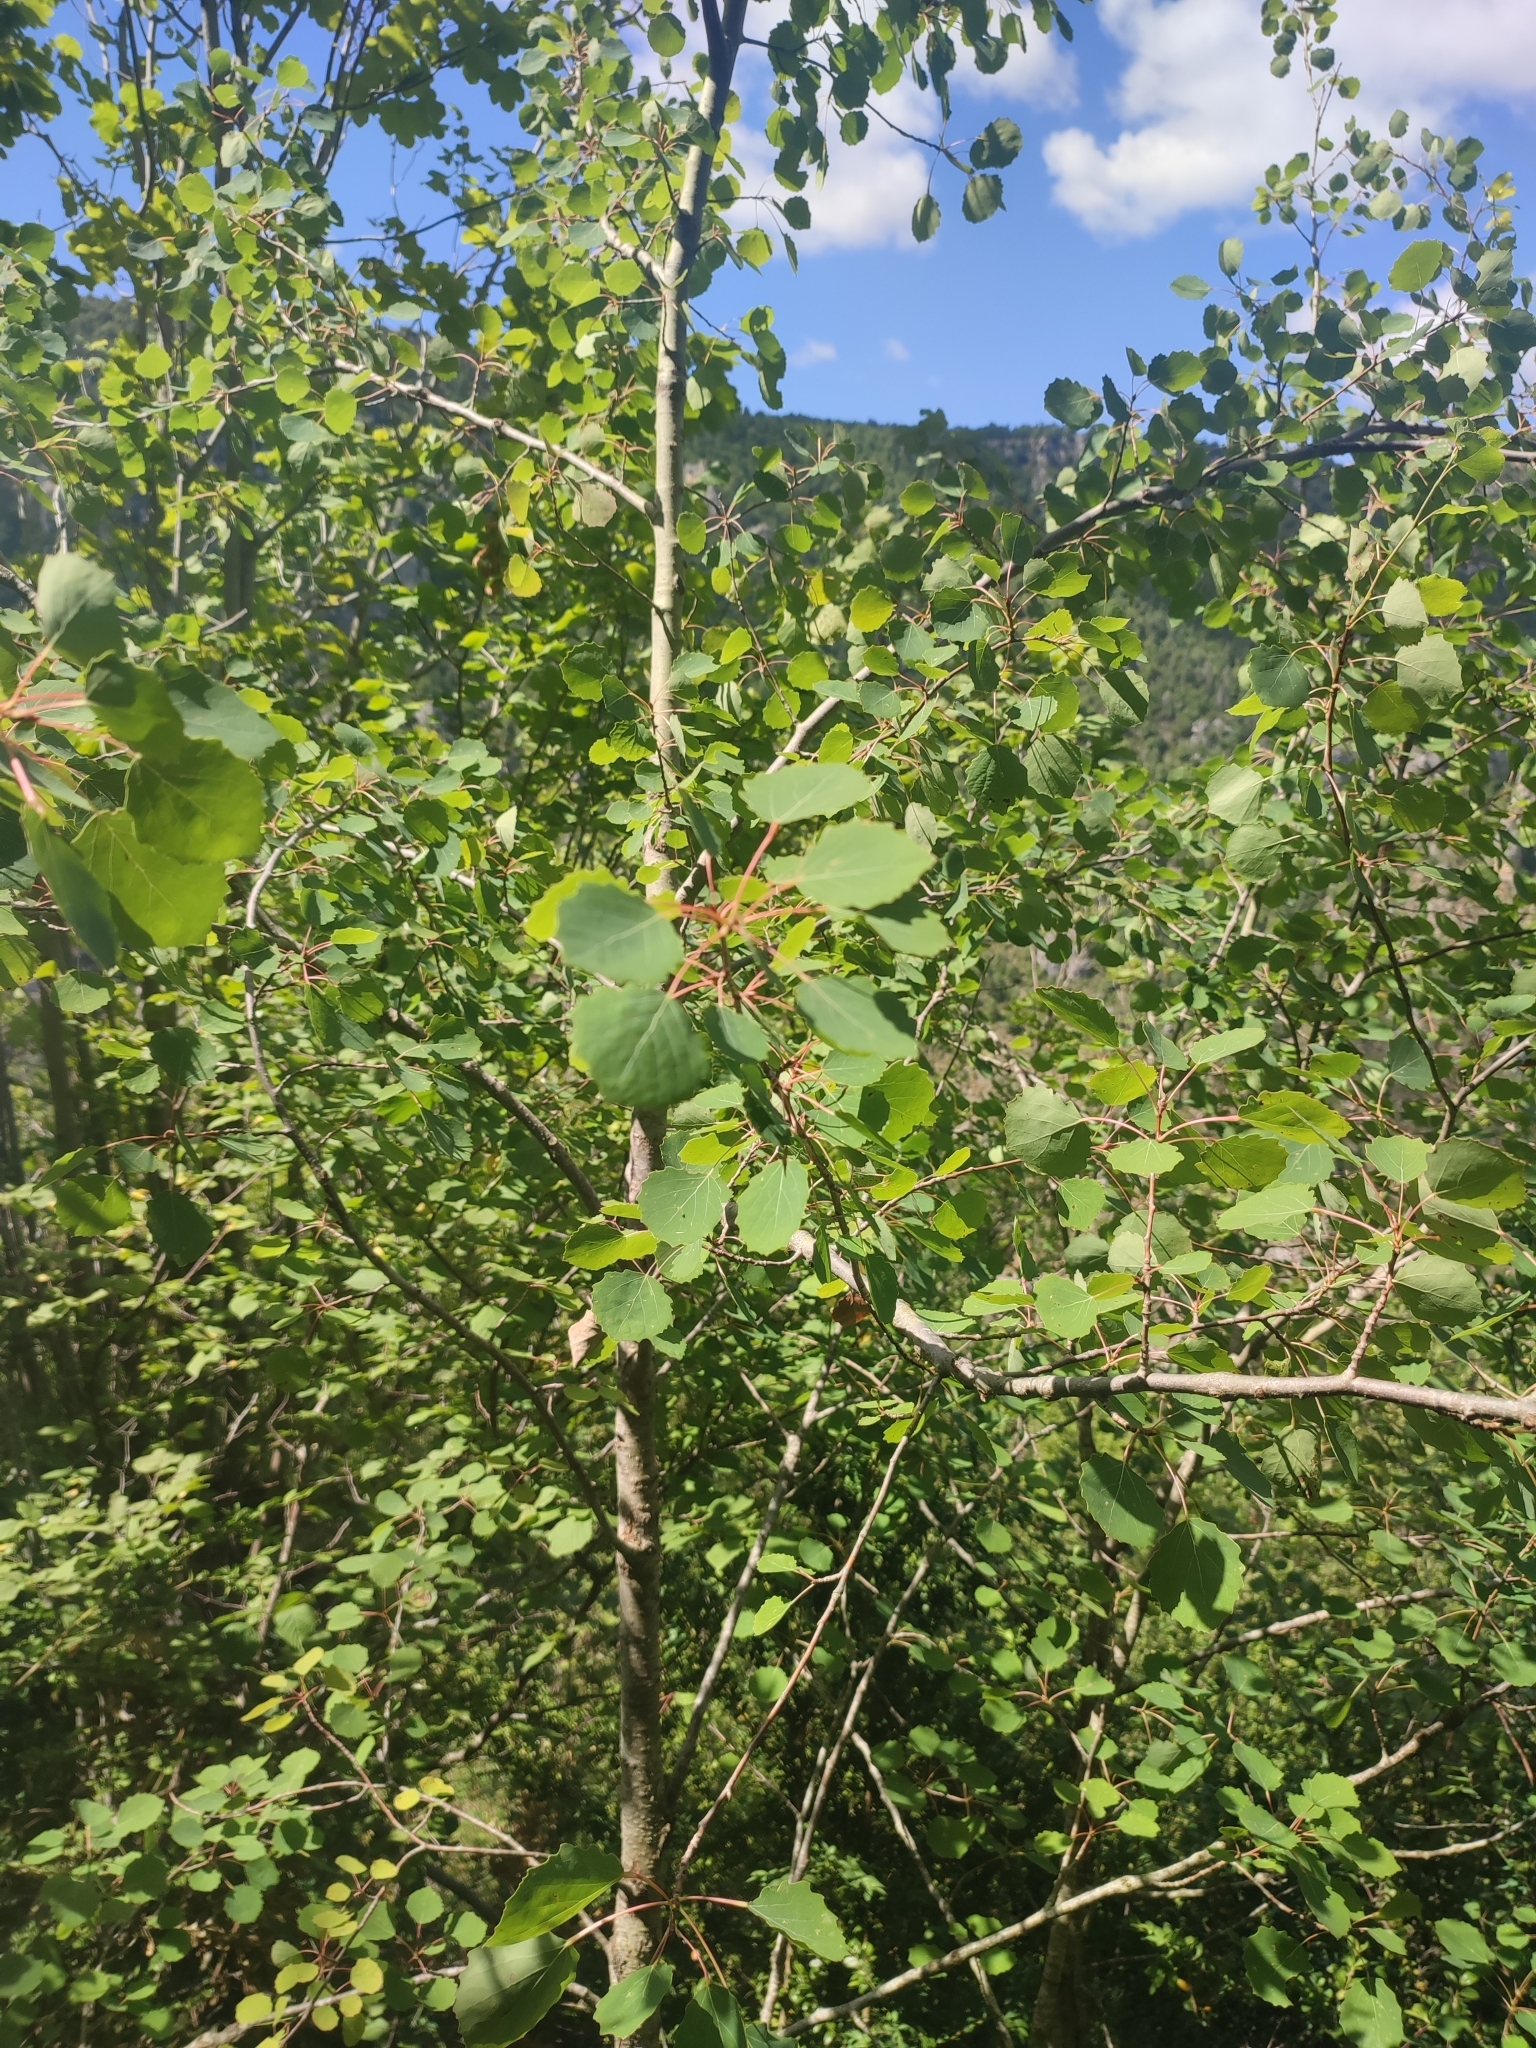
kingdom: Plantae
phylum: Tracheophyta
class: Magnoliopsida
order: Malpighiales
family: Salicaceae
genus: Populus
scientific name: Populus tremula
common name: European aspen
